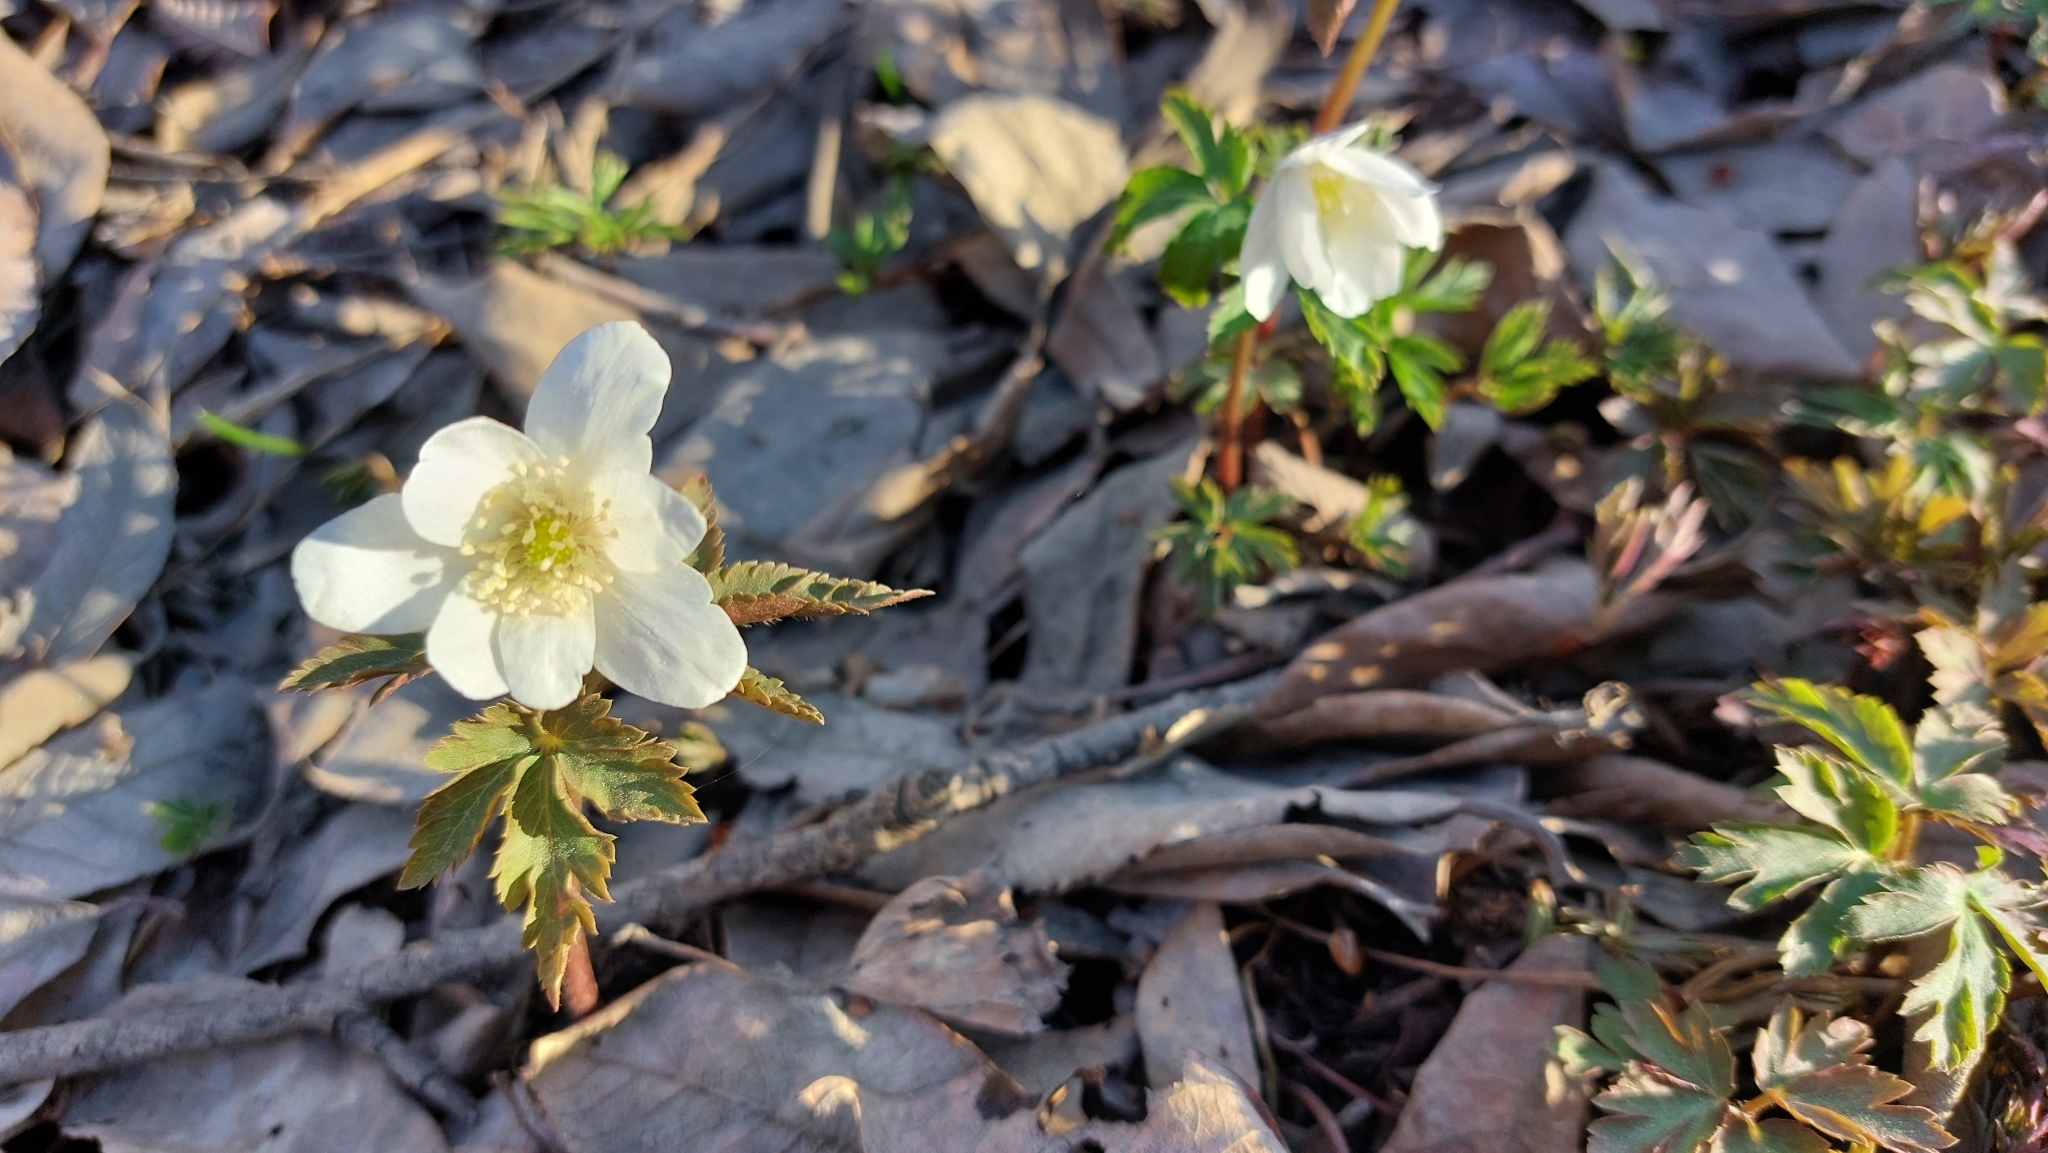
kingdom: Plantae
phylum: Tracheophyta
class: Magnoliopsida
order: Ranunculales
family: Ranunculaceae
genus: Anemone
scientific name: Anemone altaica
